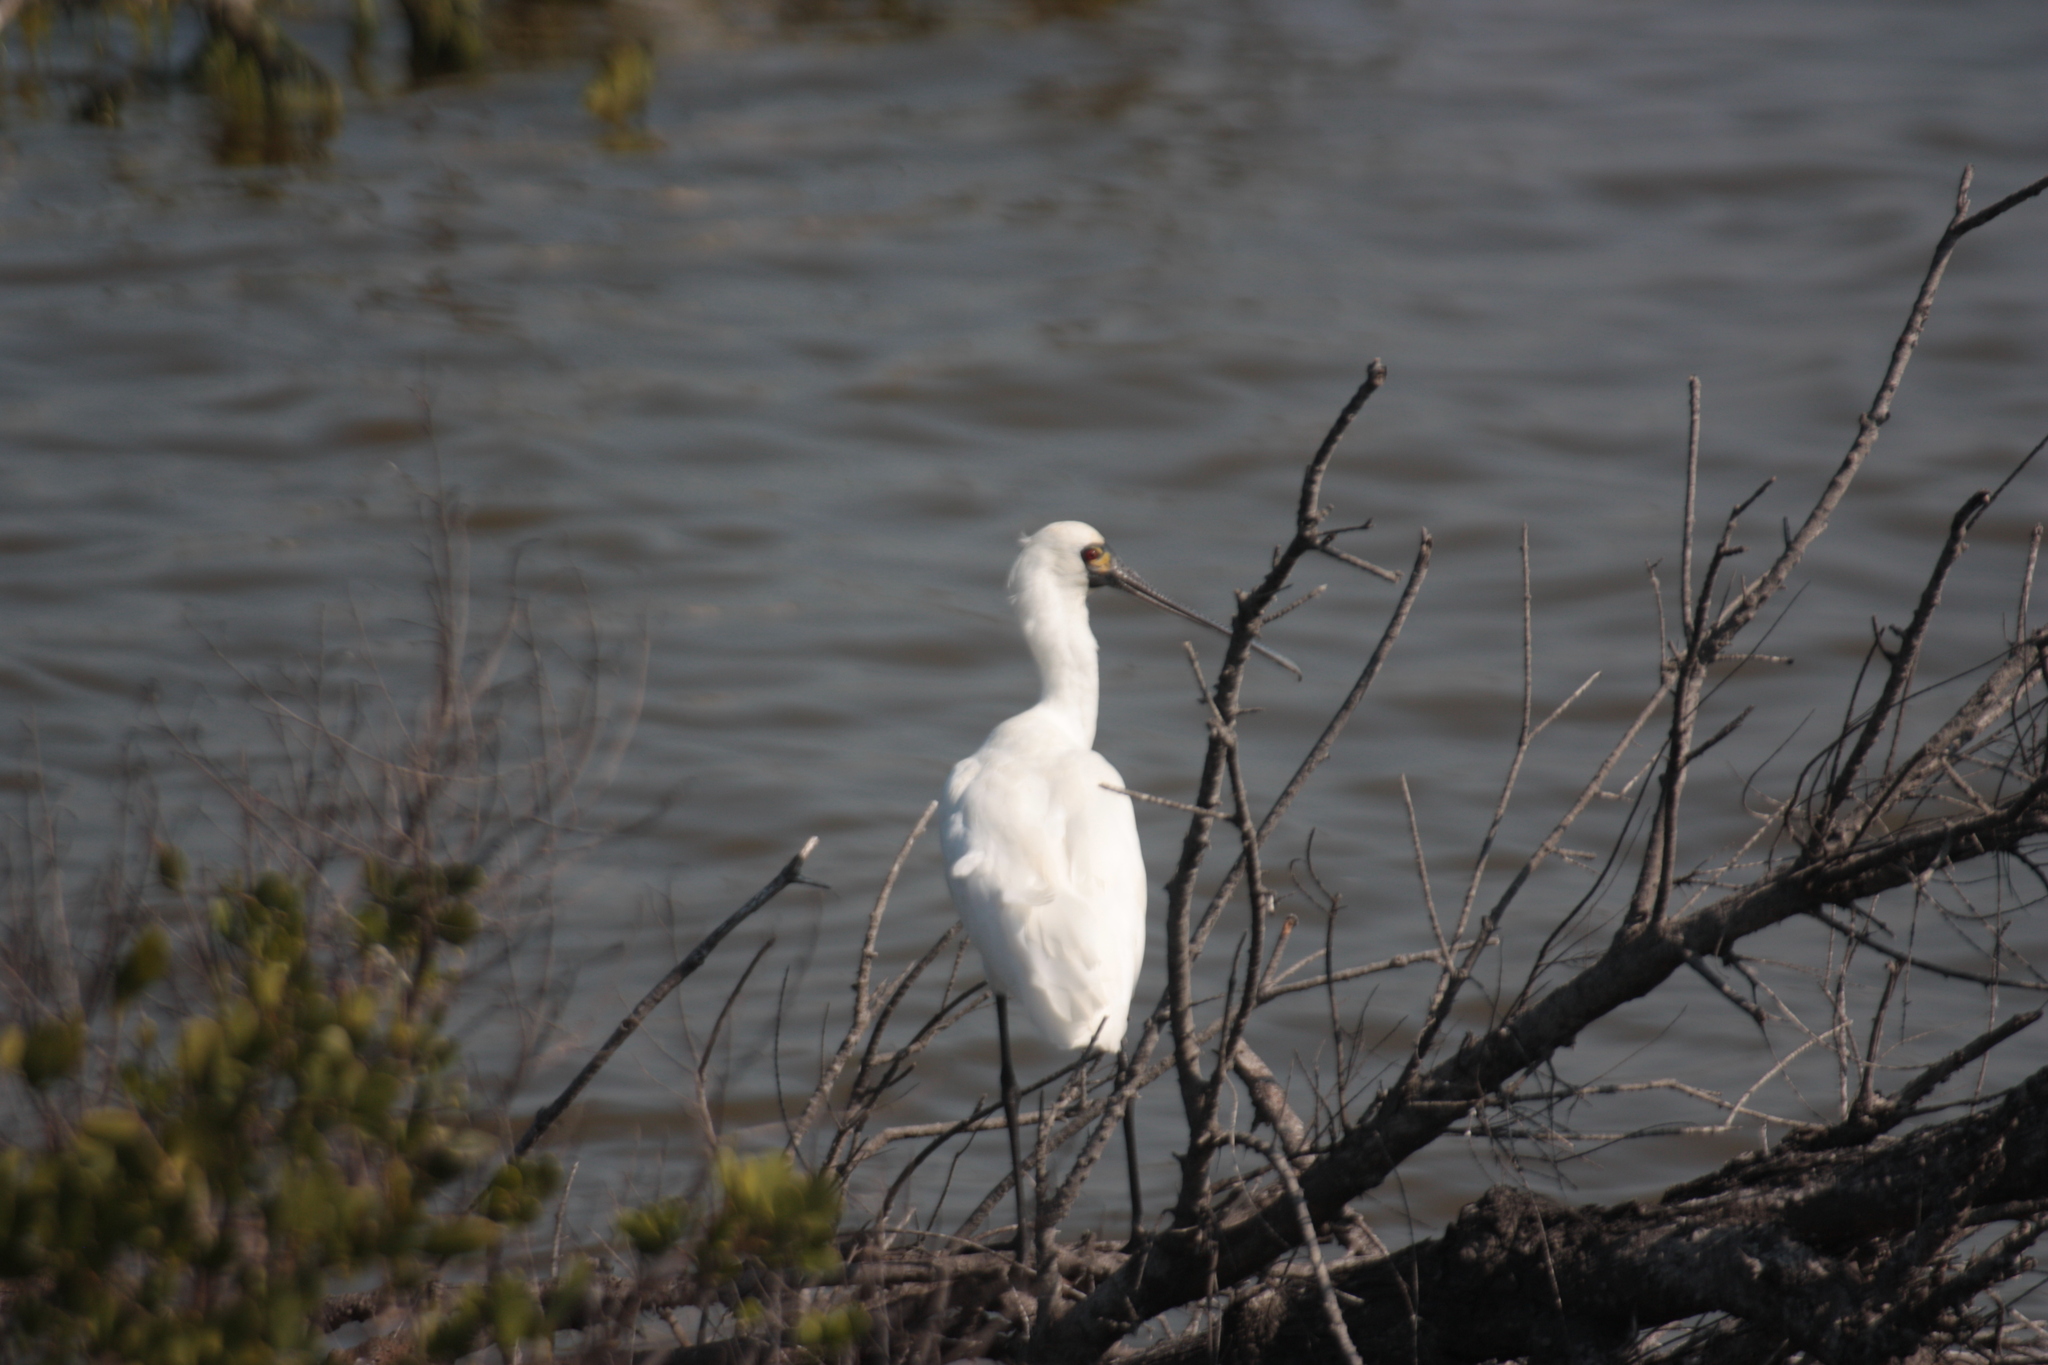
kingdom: Animalia
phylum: Chordata
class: Aves
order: Pelecaniformes
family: Threskiornithidae
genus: Platalea
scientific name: Platalea minor
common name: Black-faced spoonbill
